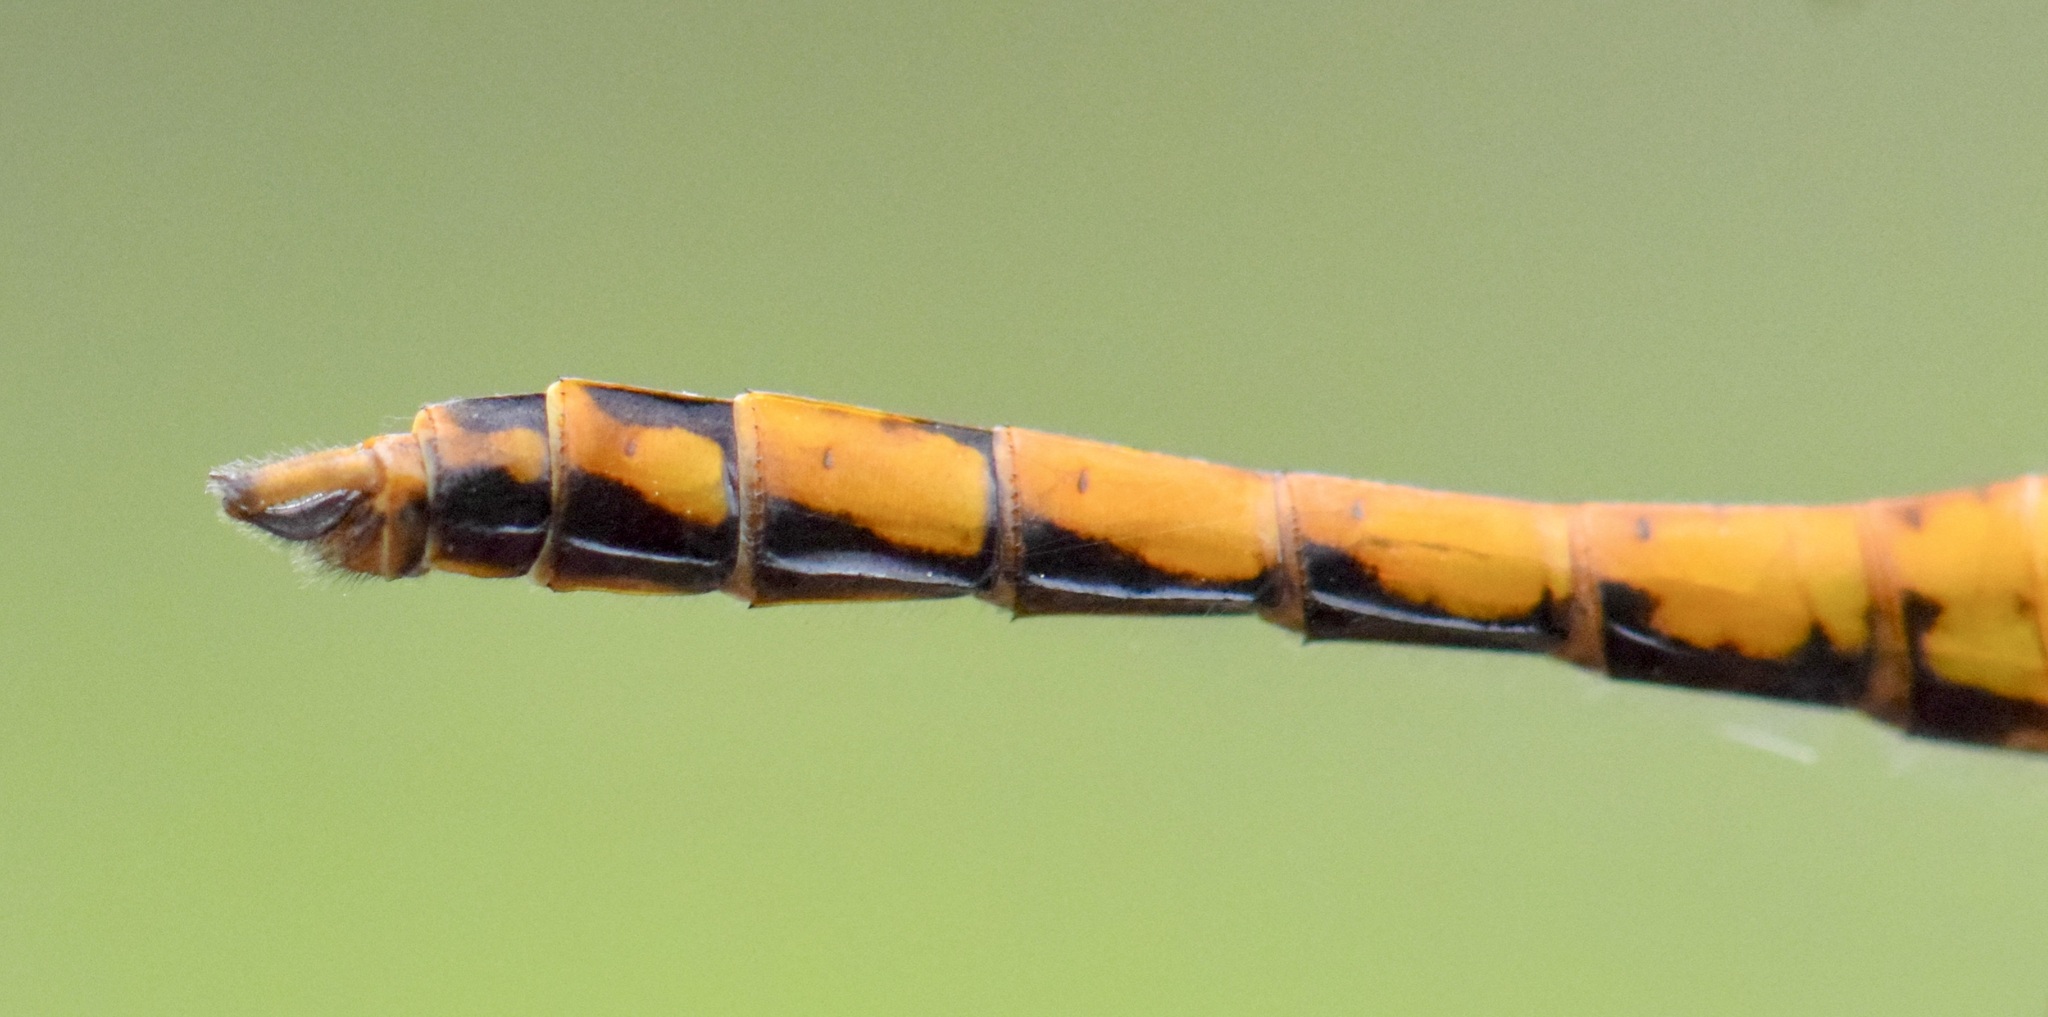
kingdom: Animalia
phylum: Arthropoda
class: Insecta
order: Odonata
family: Libellulidae
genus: Sympetrum
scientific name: Sympetrum semicinctum
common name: Band-winged meadowhawk
